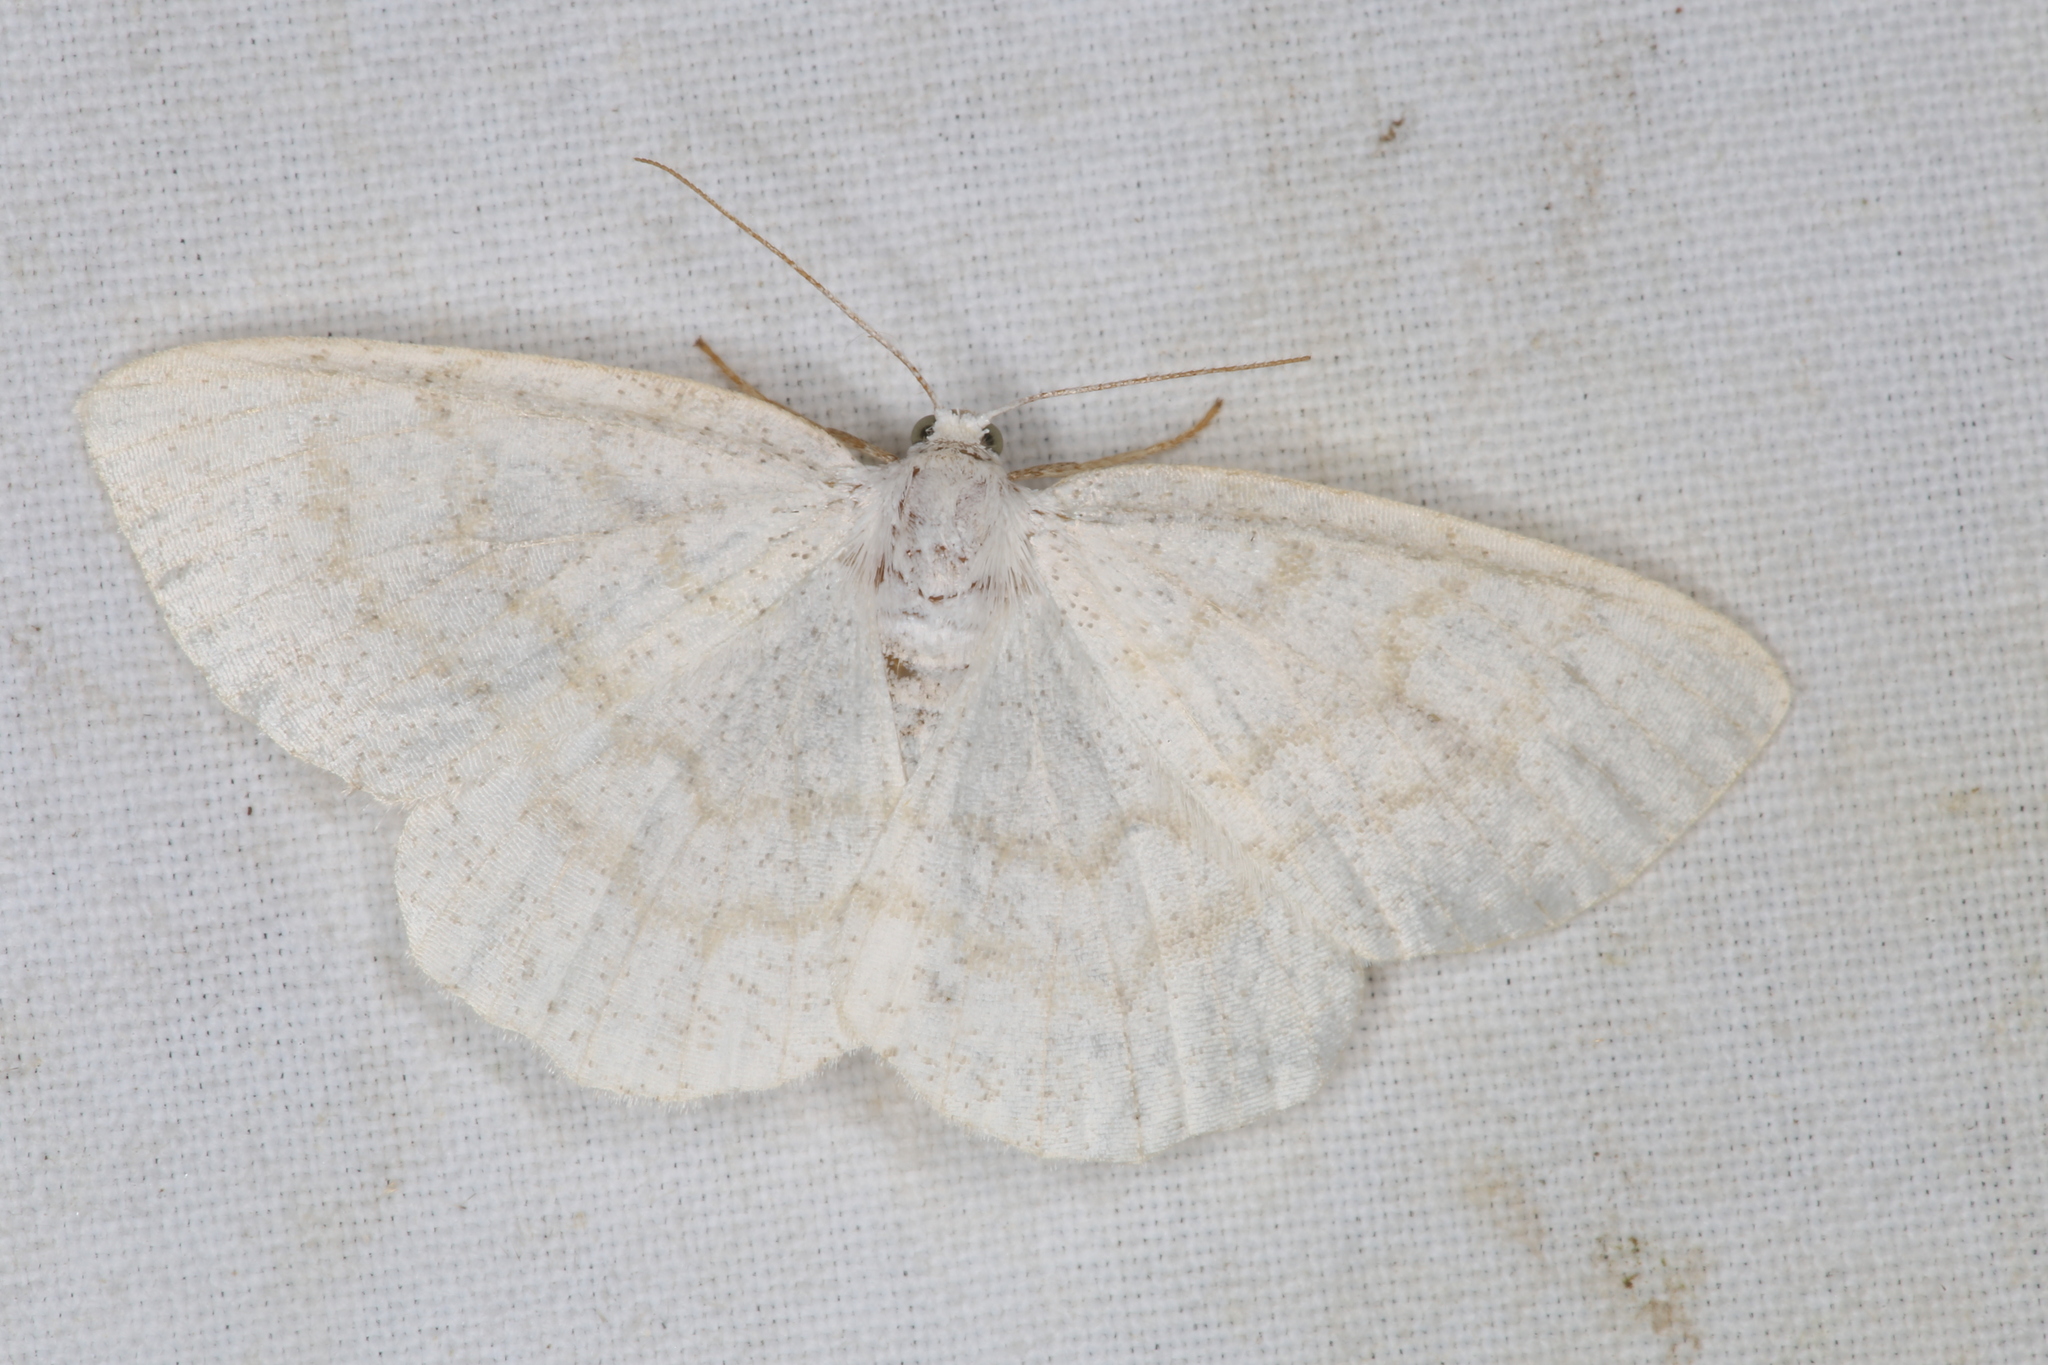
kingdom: Animalia
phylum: Arthropoda
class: Insecta
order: Lepidoptera
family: Geometridae
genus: Cabera
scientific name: Cabera exanthemata
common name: Common wave
